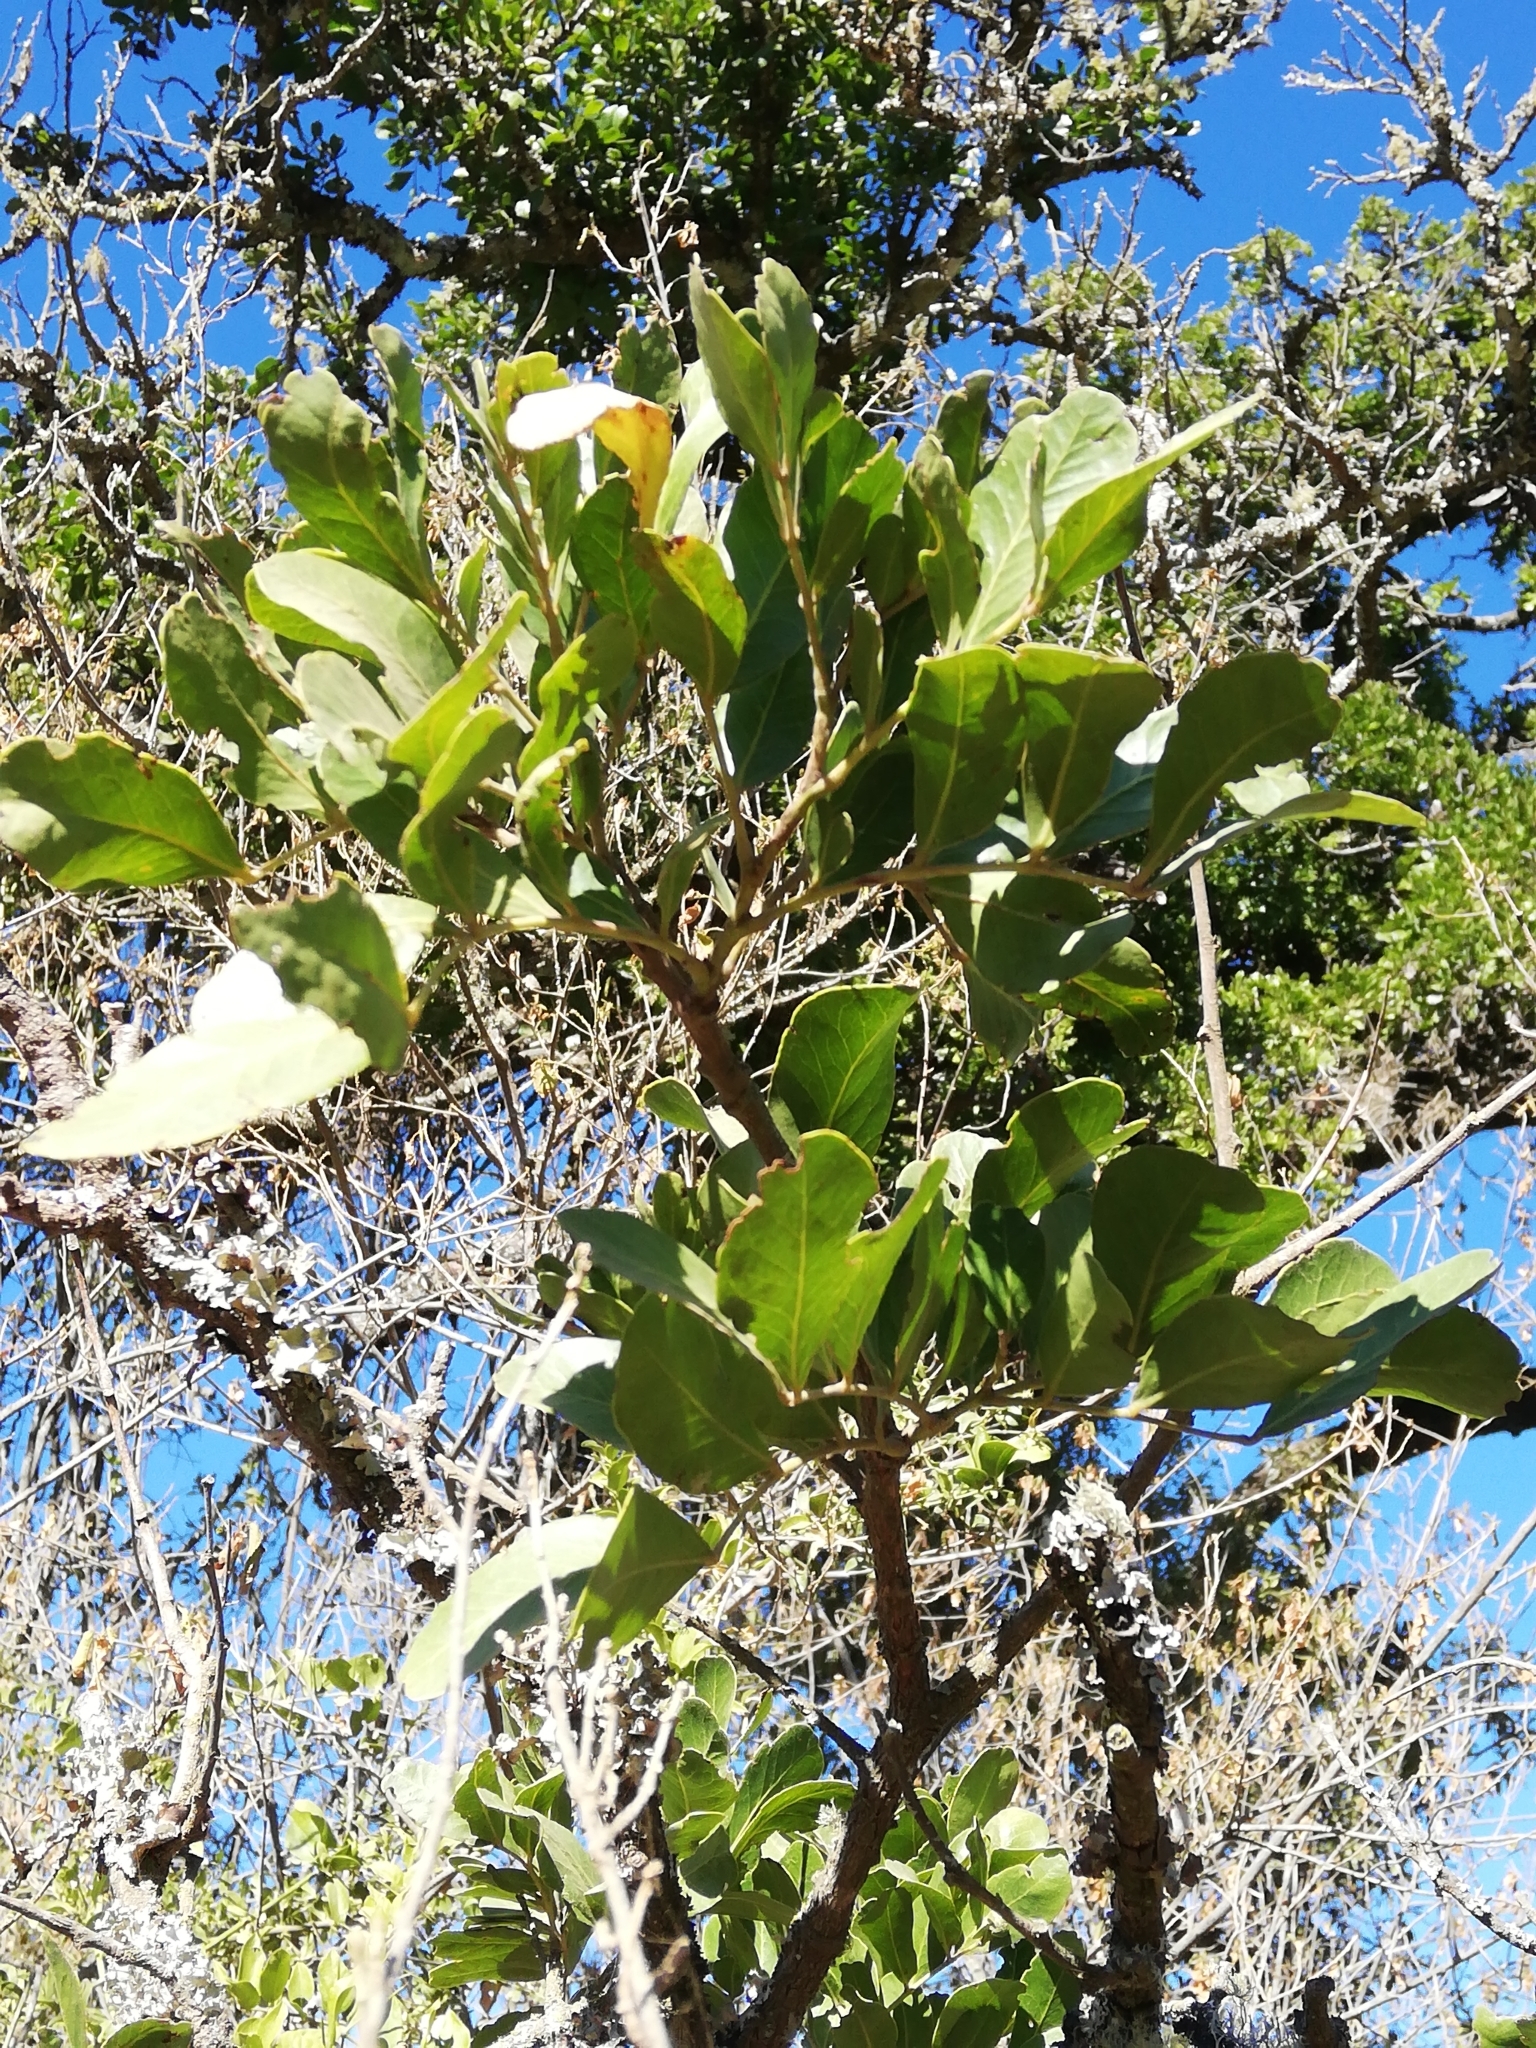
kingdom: Plantae
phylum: Tracheophyta
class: Magnoliopsida
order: Fabales
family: Fabaceae
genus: Schotia
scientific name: Schotia latifolia
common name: Bush boer-bean
